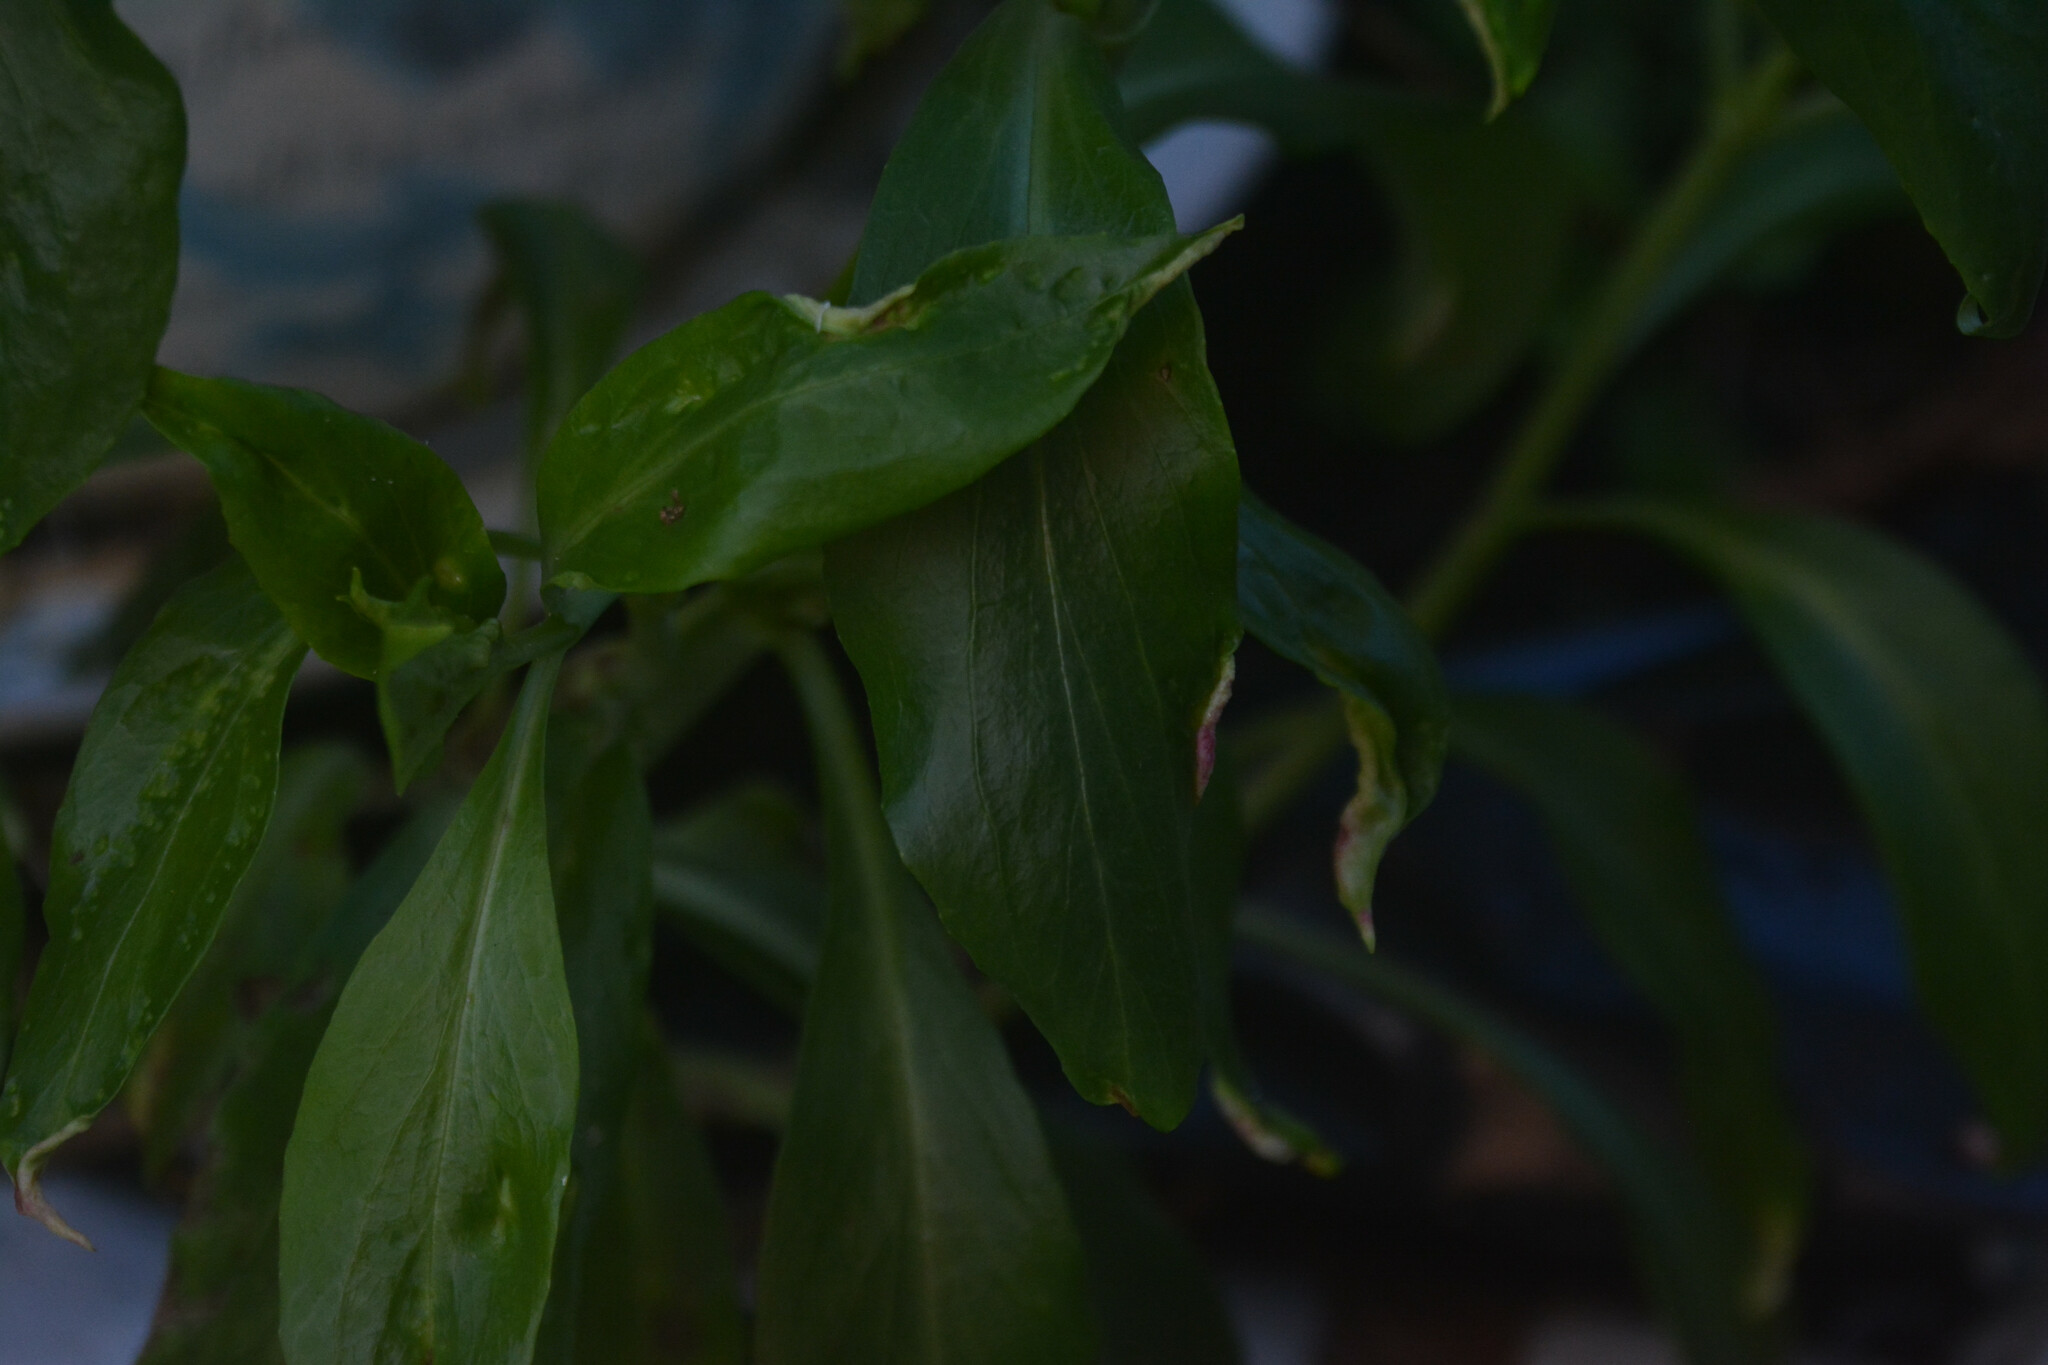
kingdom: Animalia
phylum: Arthropoda
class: Insecta
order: Hemiptera
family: Triozidae
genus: Trioza
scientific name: Trioza centranthi
